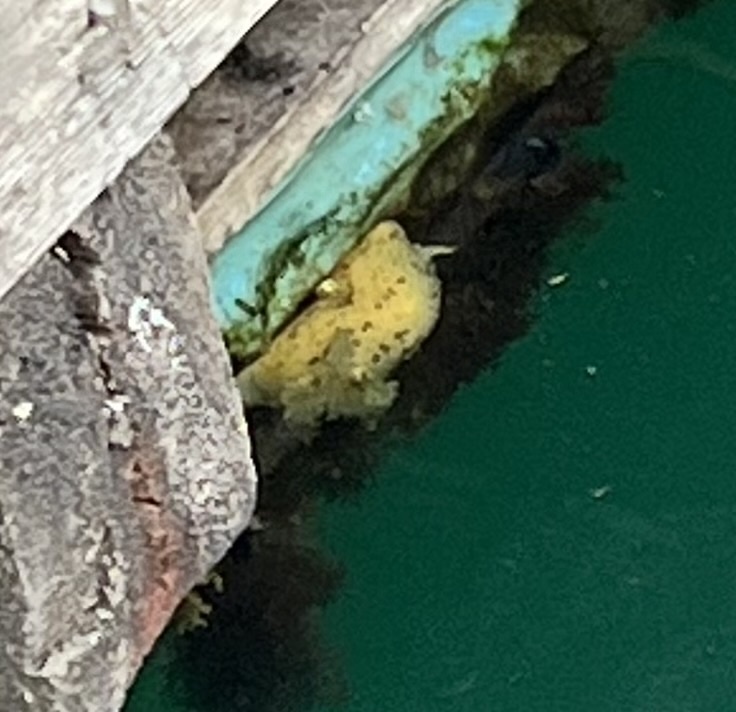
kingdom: Animalia
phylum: Mollusca
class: Gastropoda
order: Nudibranchia
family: Dorididae
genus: Doris
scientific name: Doris montereyensis
